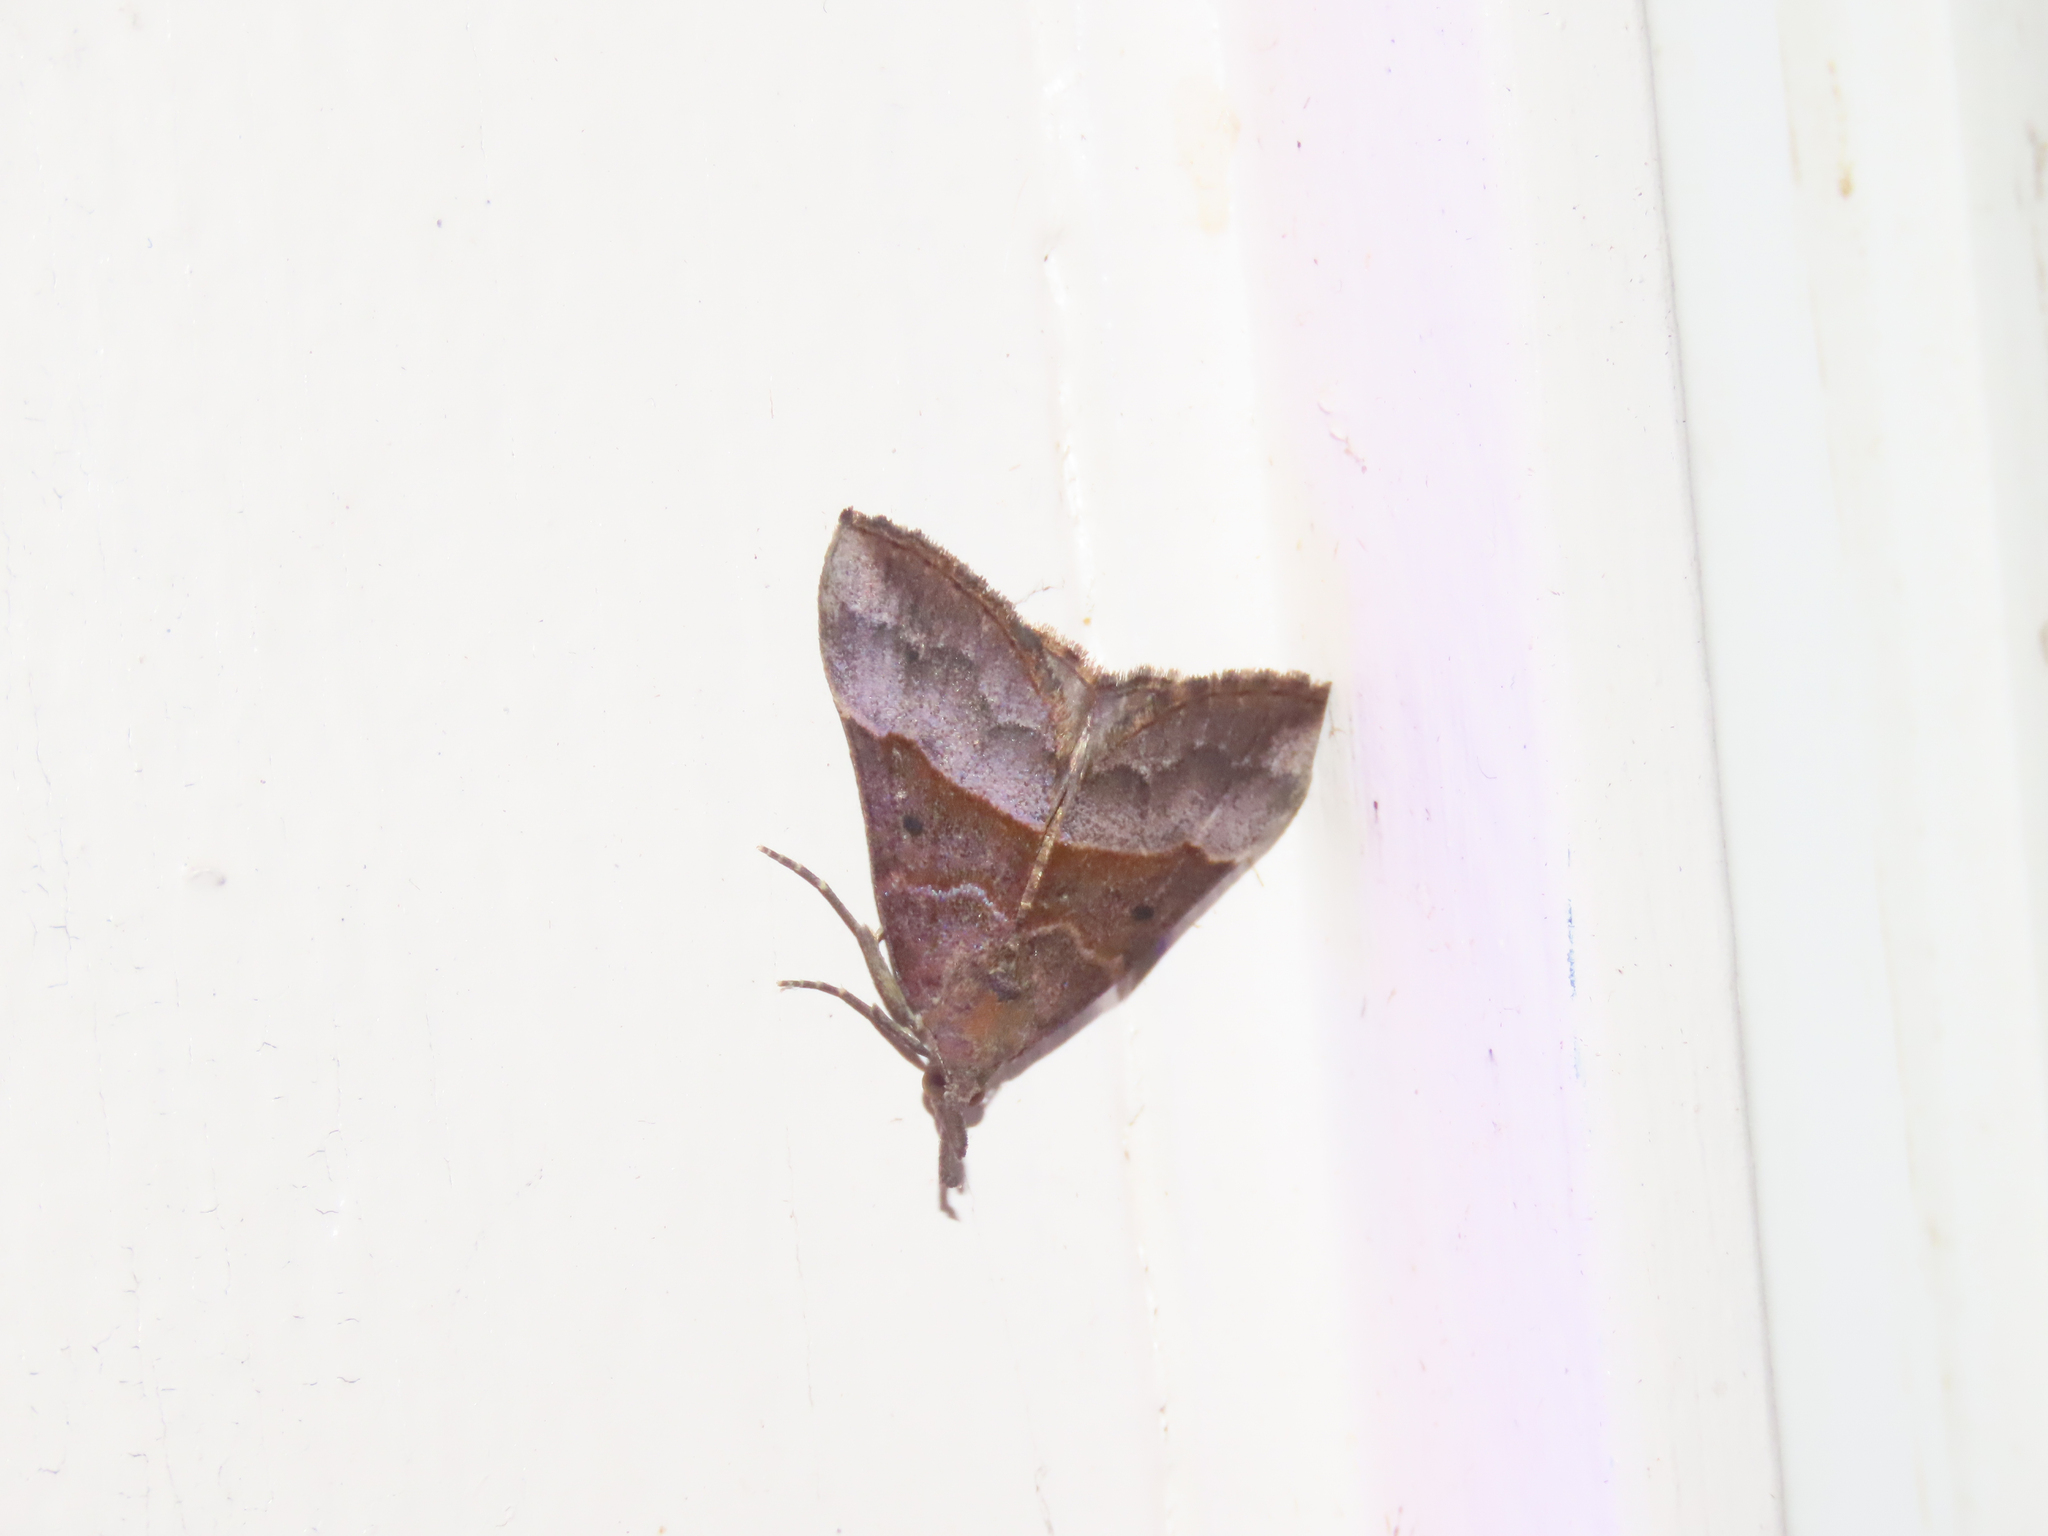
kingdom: Animalia
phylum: Arthropoda
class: Insecta
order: Lepidoptera
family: Erebidae
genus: Hypena
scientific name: Hypena eductalis
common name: Red-footed snout
